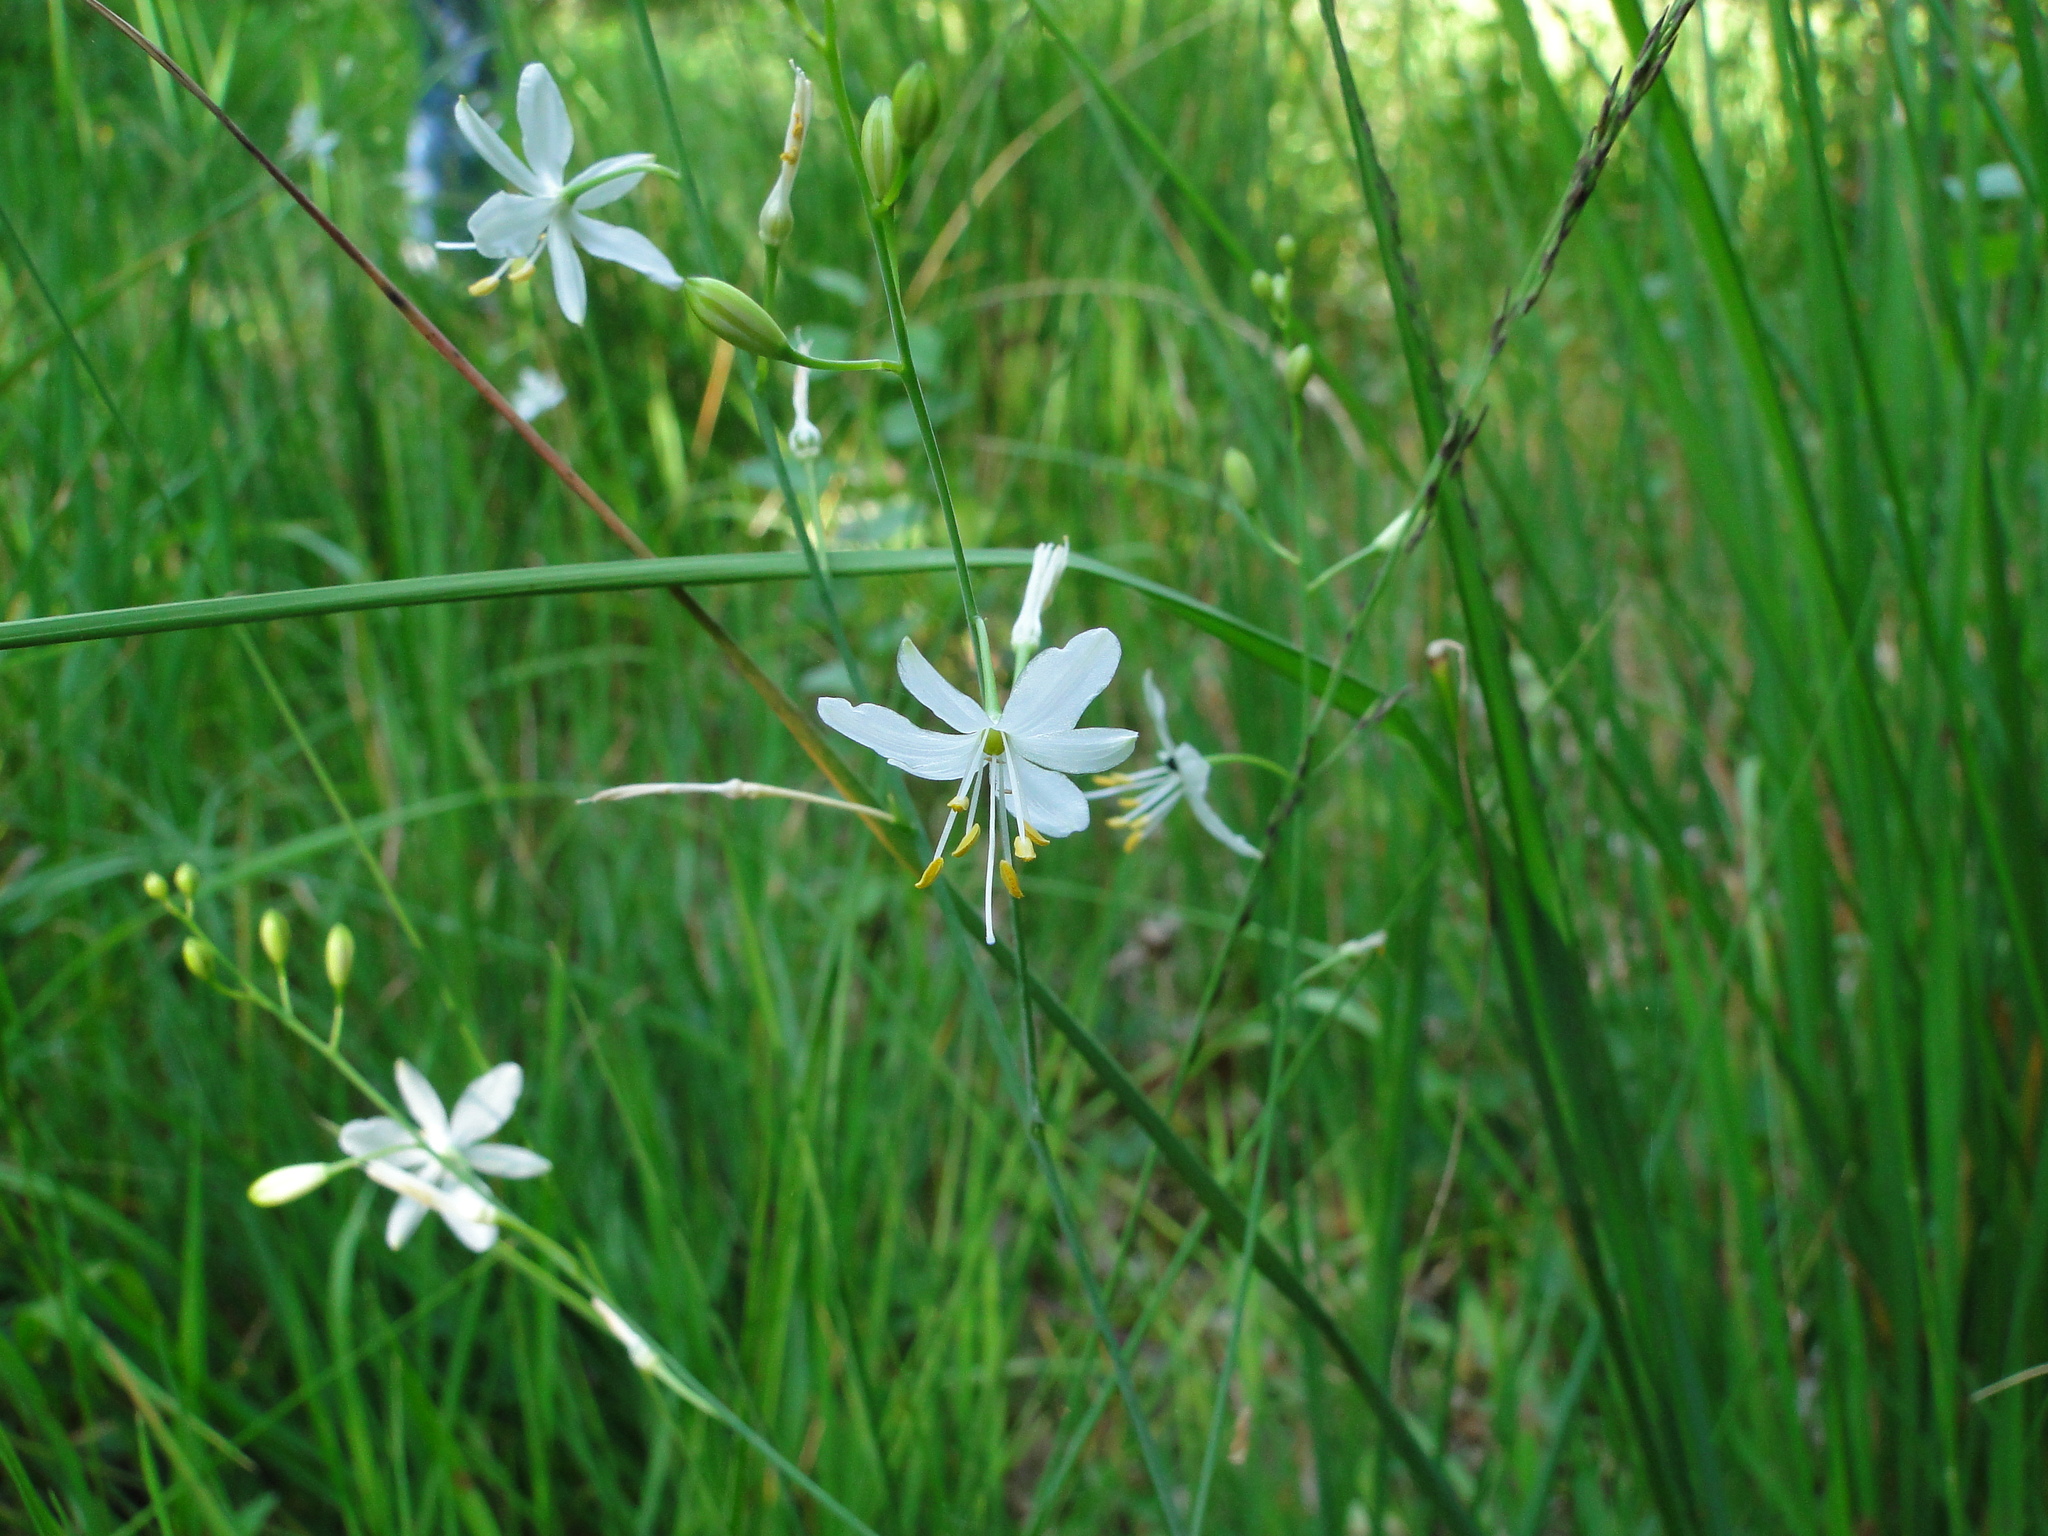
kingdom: Plantae
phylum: Tracheophyta
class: Liliopsida
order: Asparagales
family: Asparagaceae
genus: Anthericum
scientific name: Anthericum ramosum
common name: Branched st. bernard's-lily
